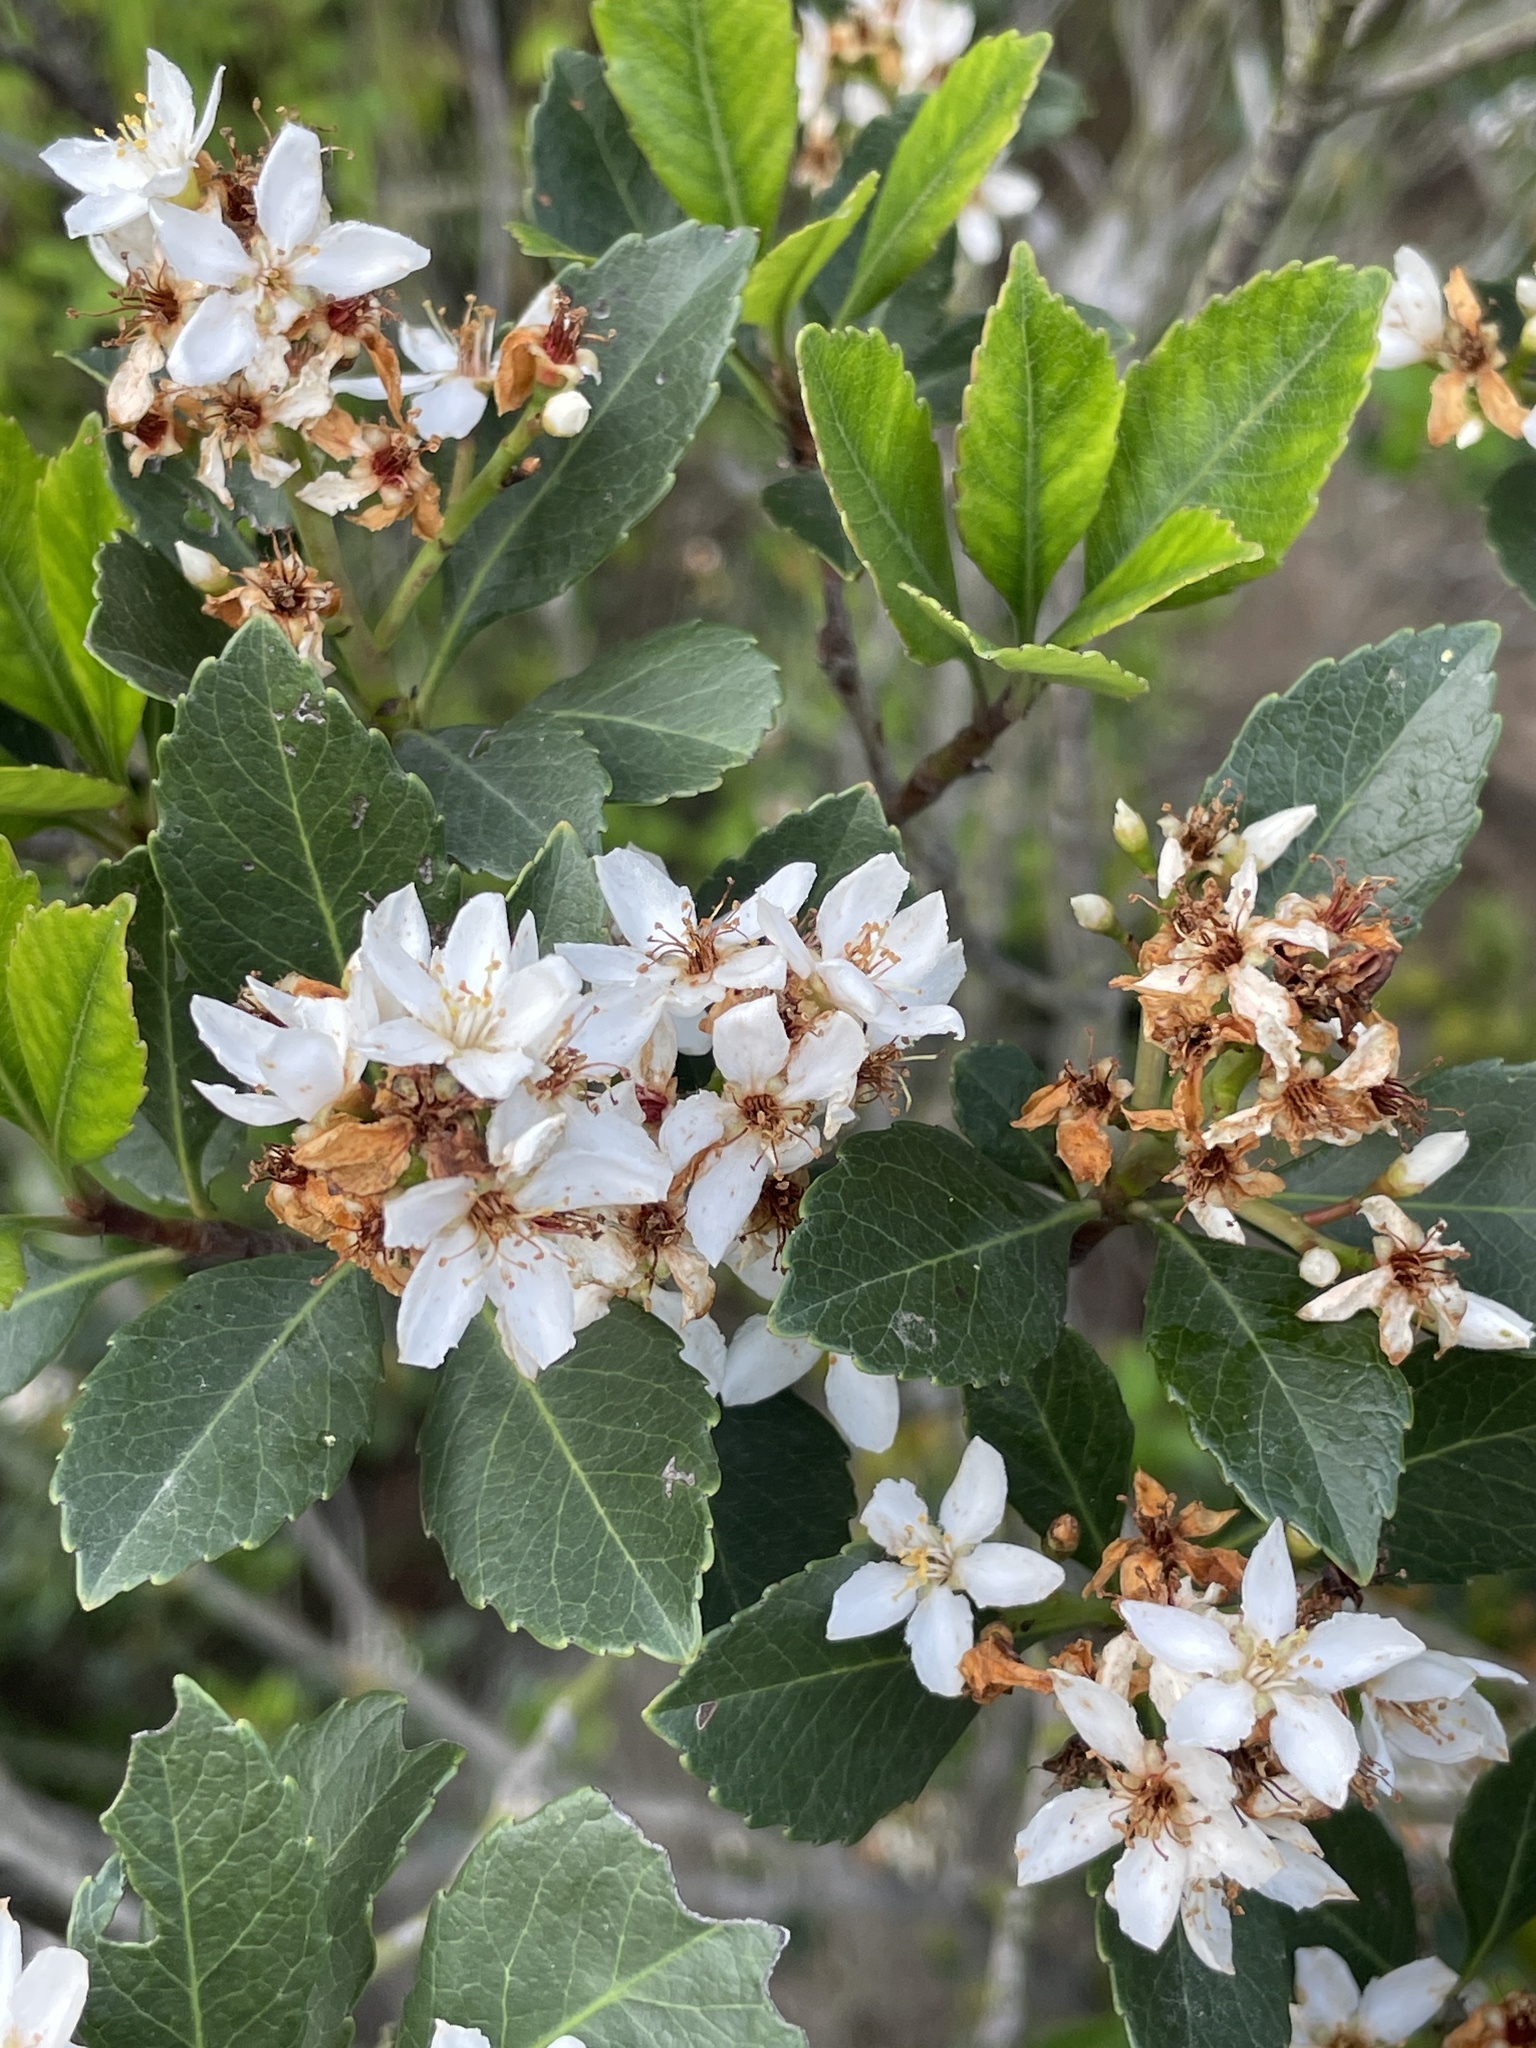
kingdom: Plantae
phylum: Tracheophyta
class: Magnoliopsida
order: Rosales
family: Rosaceae
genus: Rhaphiolepis
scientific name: Rhaphiolepis indica
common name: India-hawthorn
